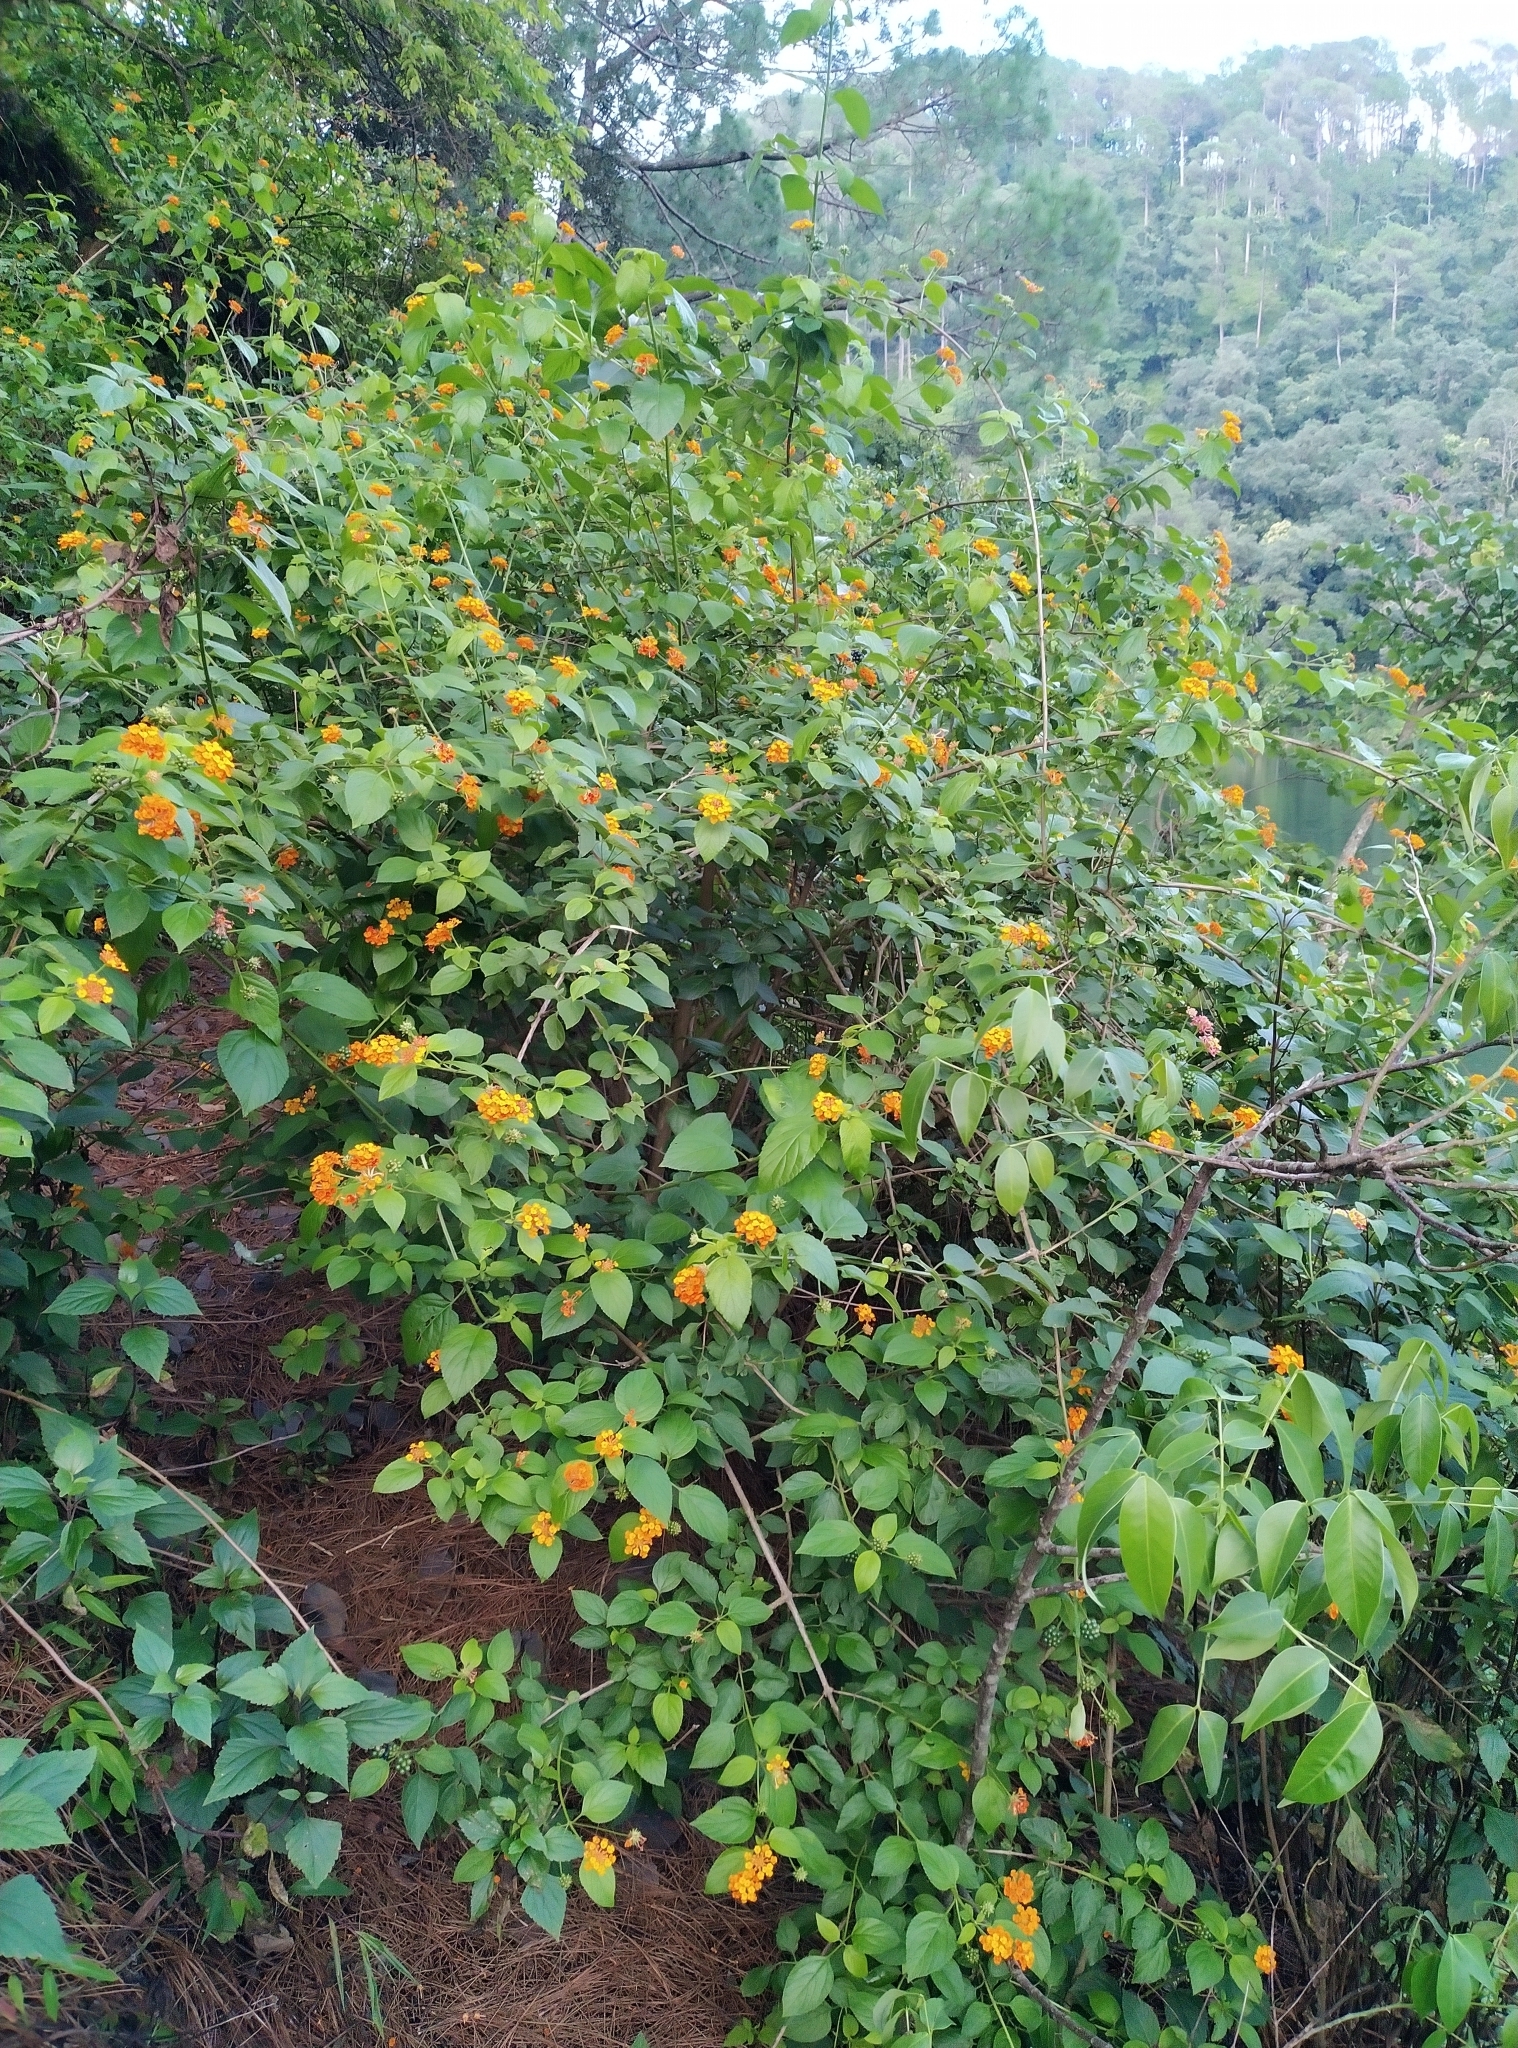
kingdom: Plantae
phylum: Tracheophyta
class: Magnoliopsida
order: Lamiales
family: Verbenaceae
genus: Lantana
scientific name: Lantana camara
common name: Lantana
